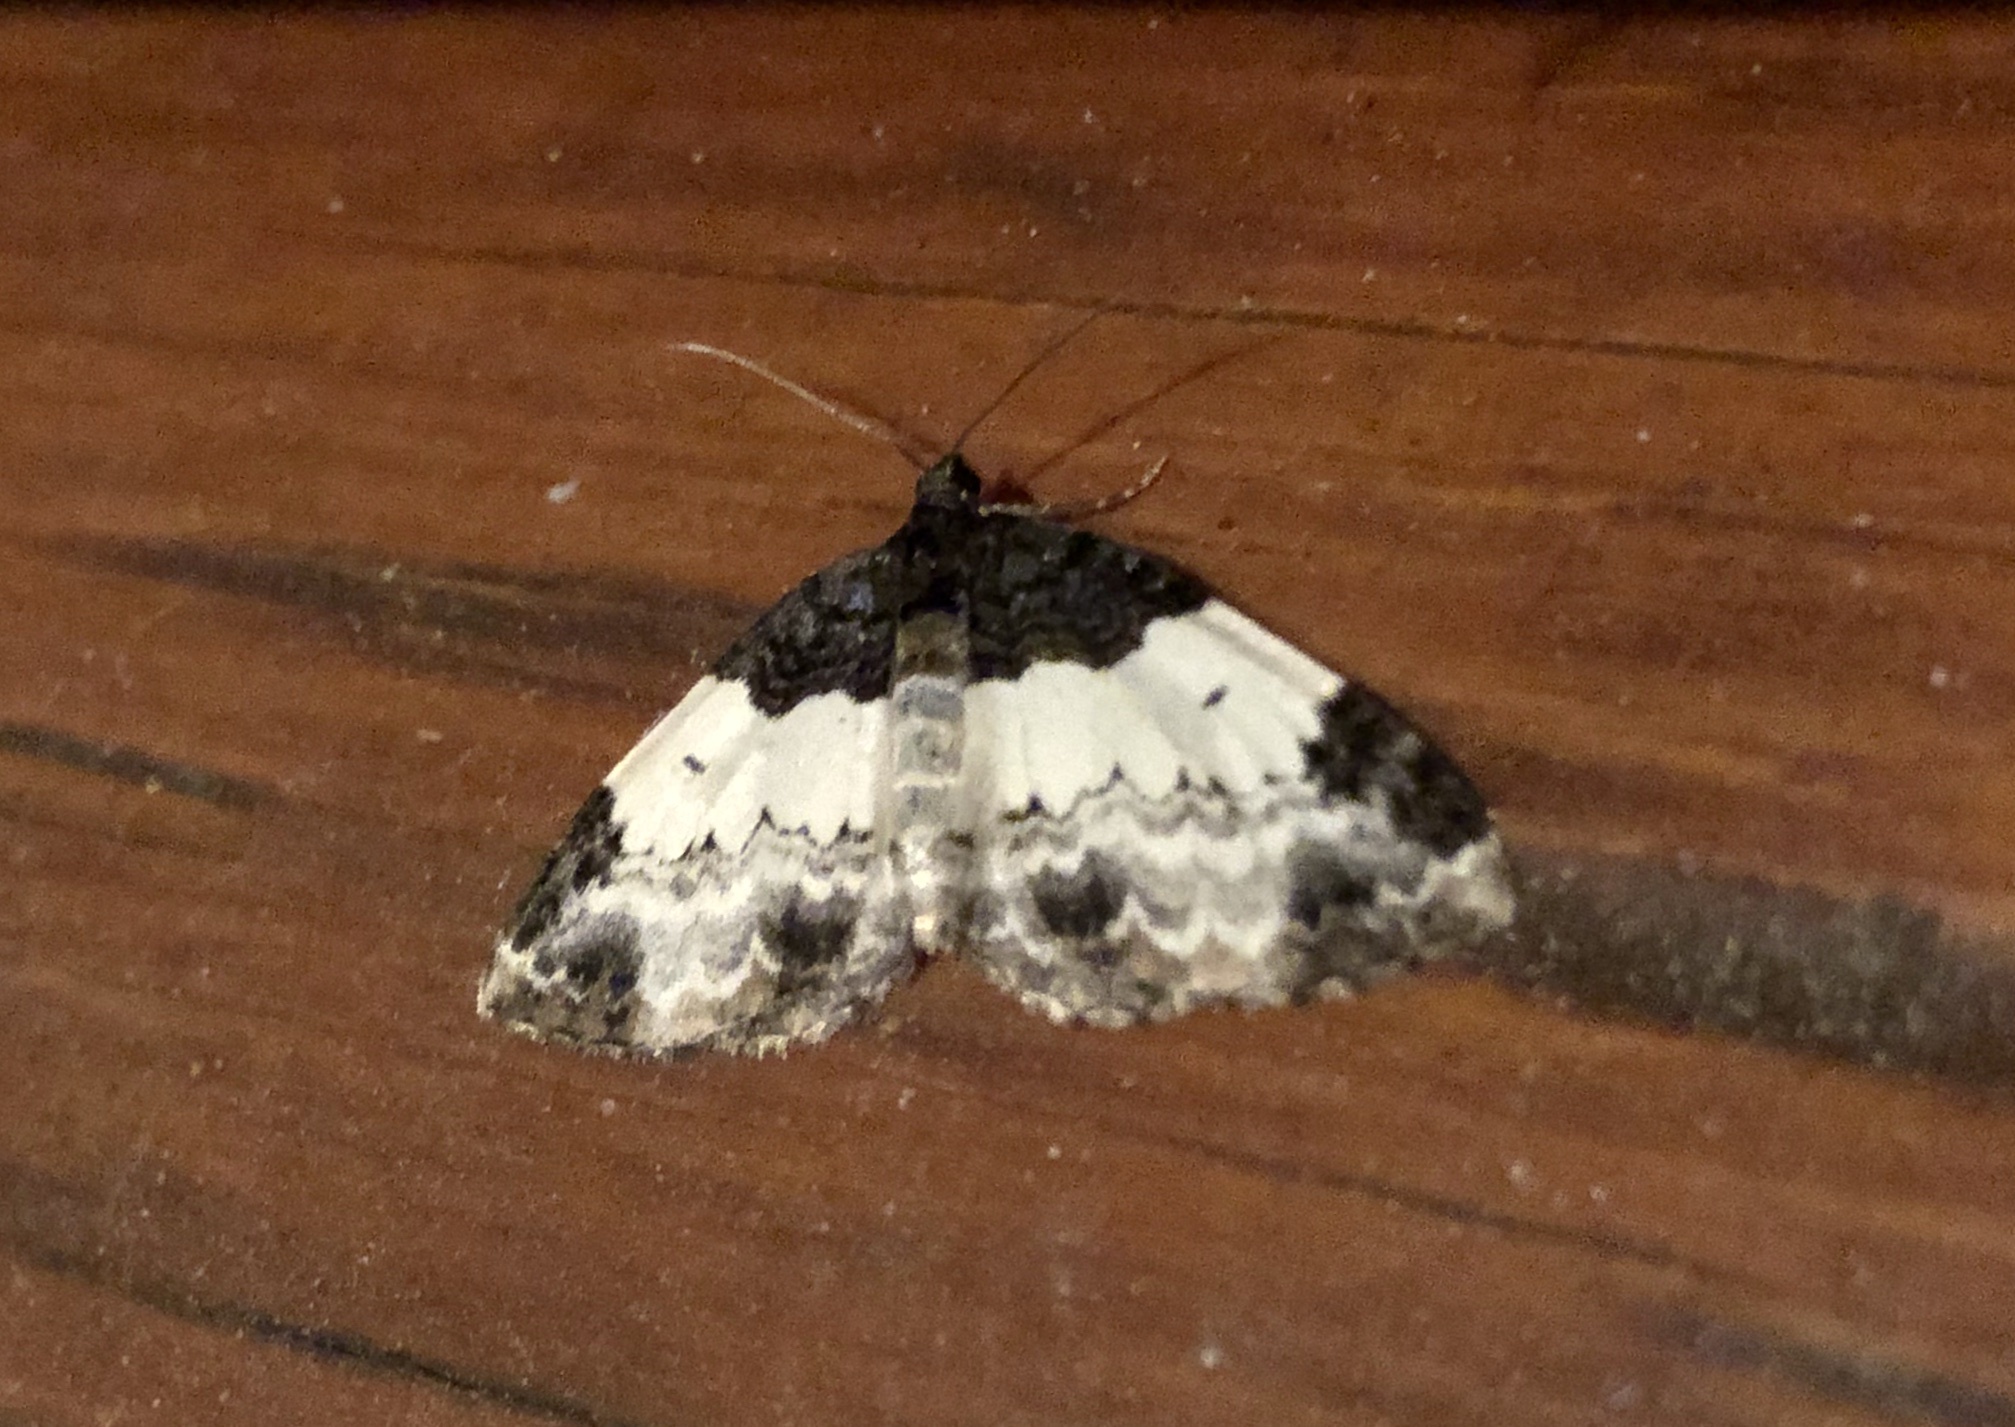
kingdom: Animalia
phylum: Arthropoda
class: Insecta
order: Lepidoptera
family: Geometridae
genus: Mesoleuca
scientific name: Mesoleuca ruficillata
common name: White-ribboned carpet moth
